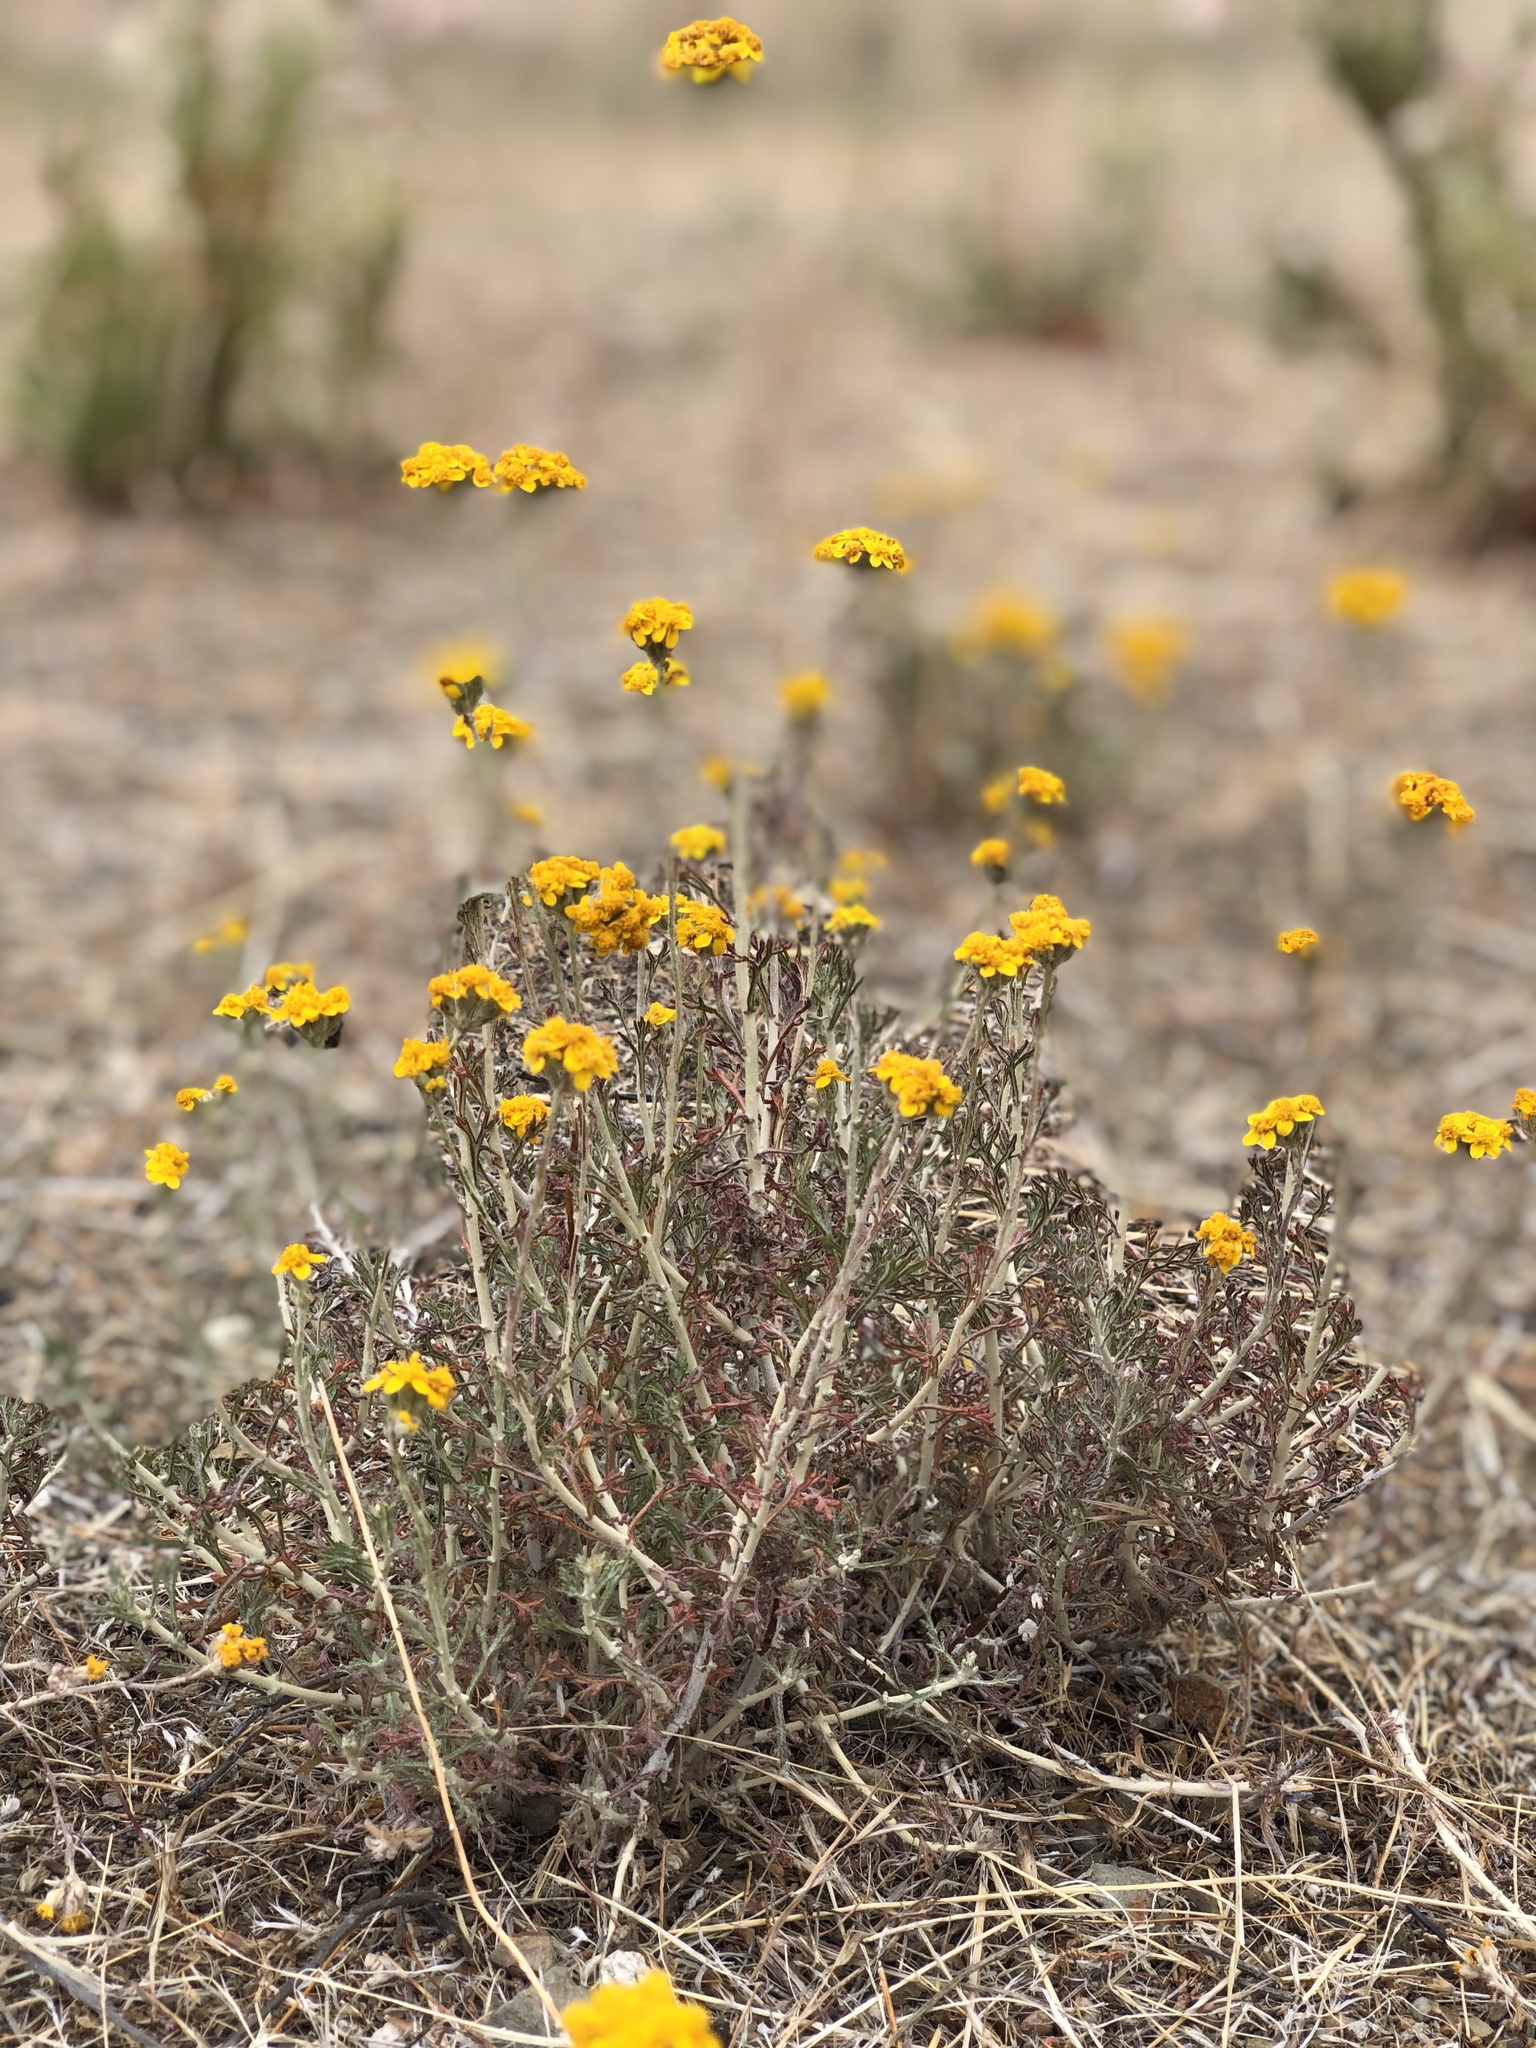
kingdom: Plantae
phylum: Tracheophyta
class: Magnoliopsida
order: Asterales
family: Asteraceae
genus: Eriophyllum
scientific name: Eriophyllum confertiflorum
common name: Golden-yarrow
